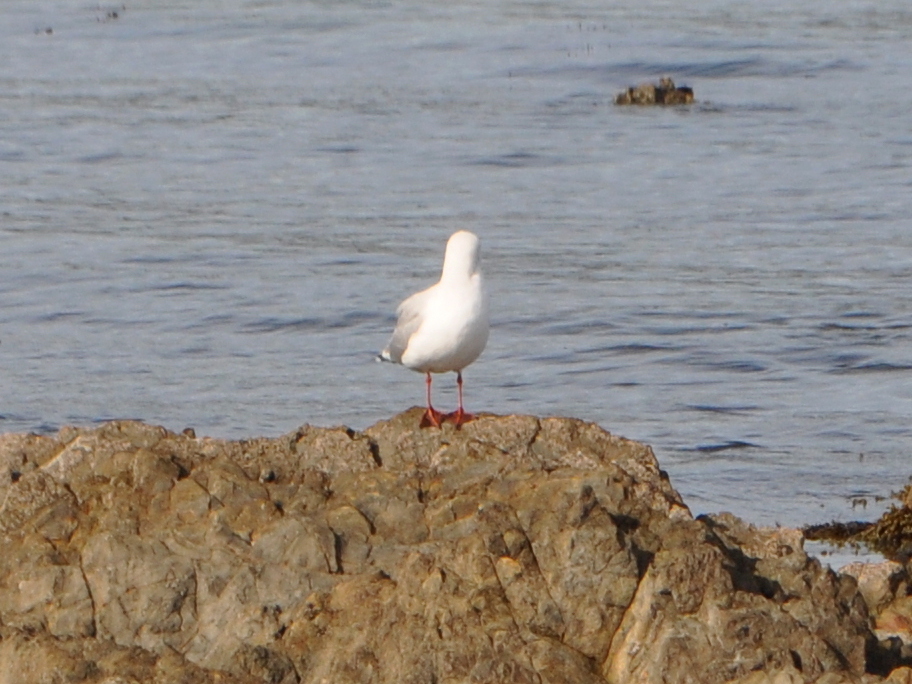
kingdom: Animalia
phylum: Chordata
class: Aves
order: Charadriiformes
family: Laridae
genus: Chroicocephalus
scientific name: Chroicocephalus novaehollandiae
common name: Silver gull
